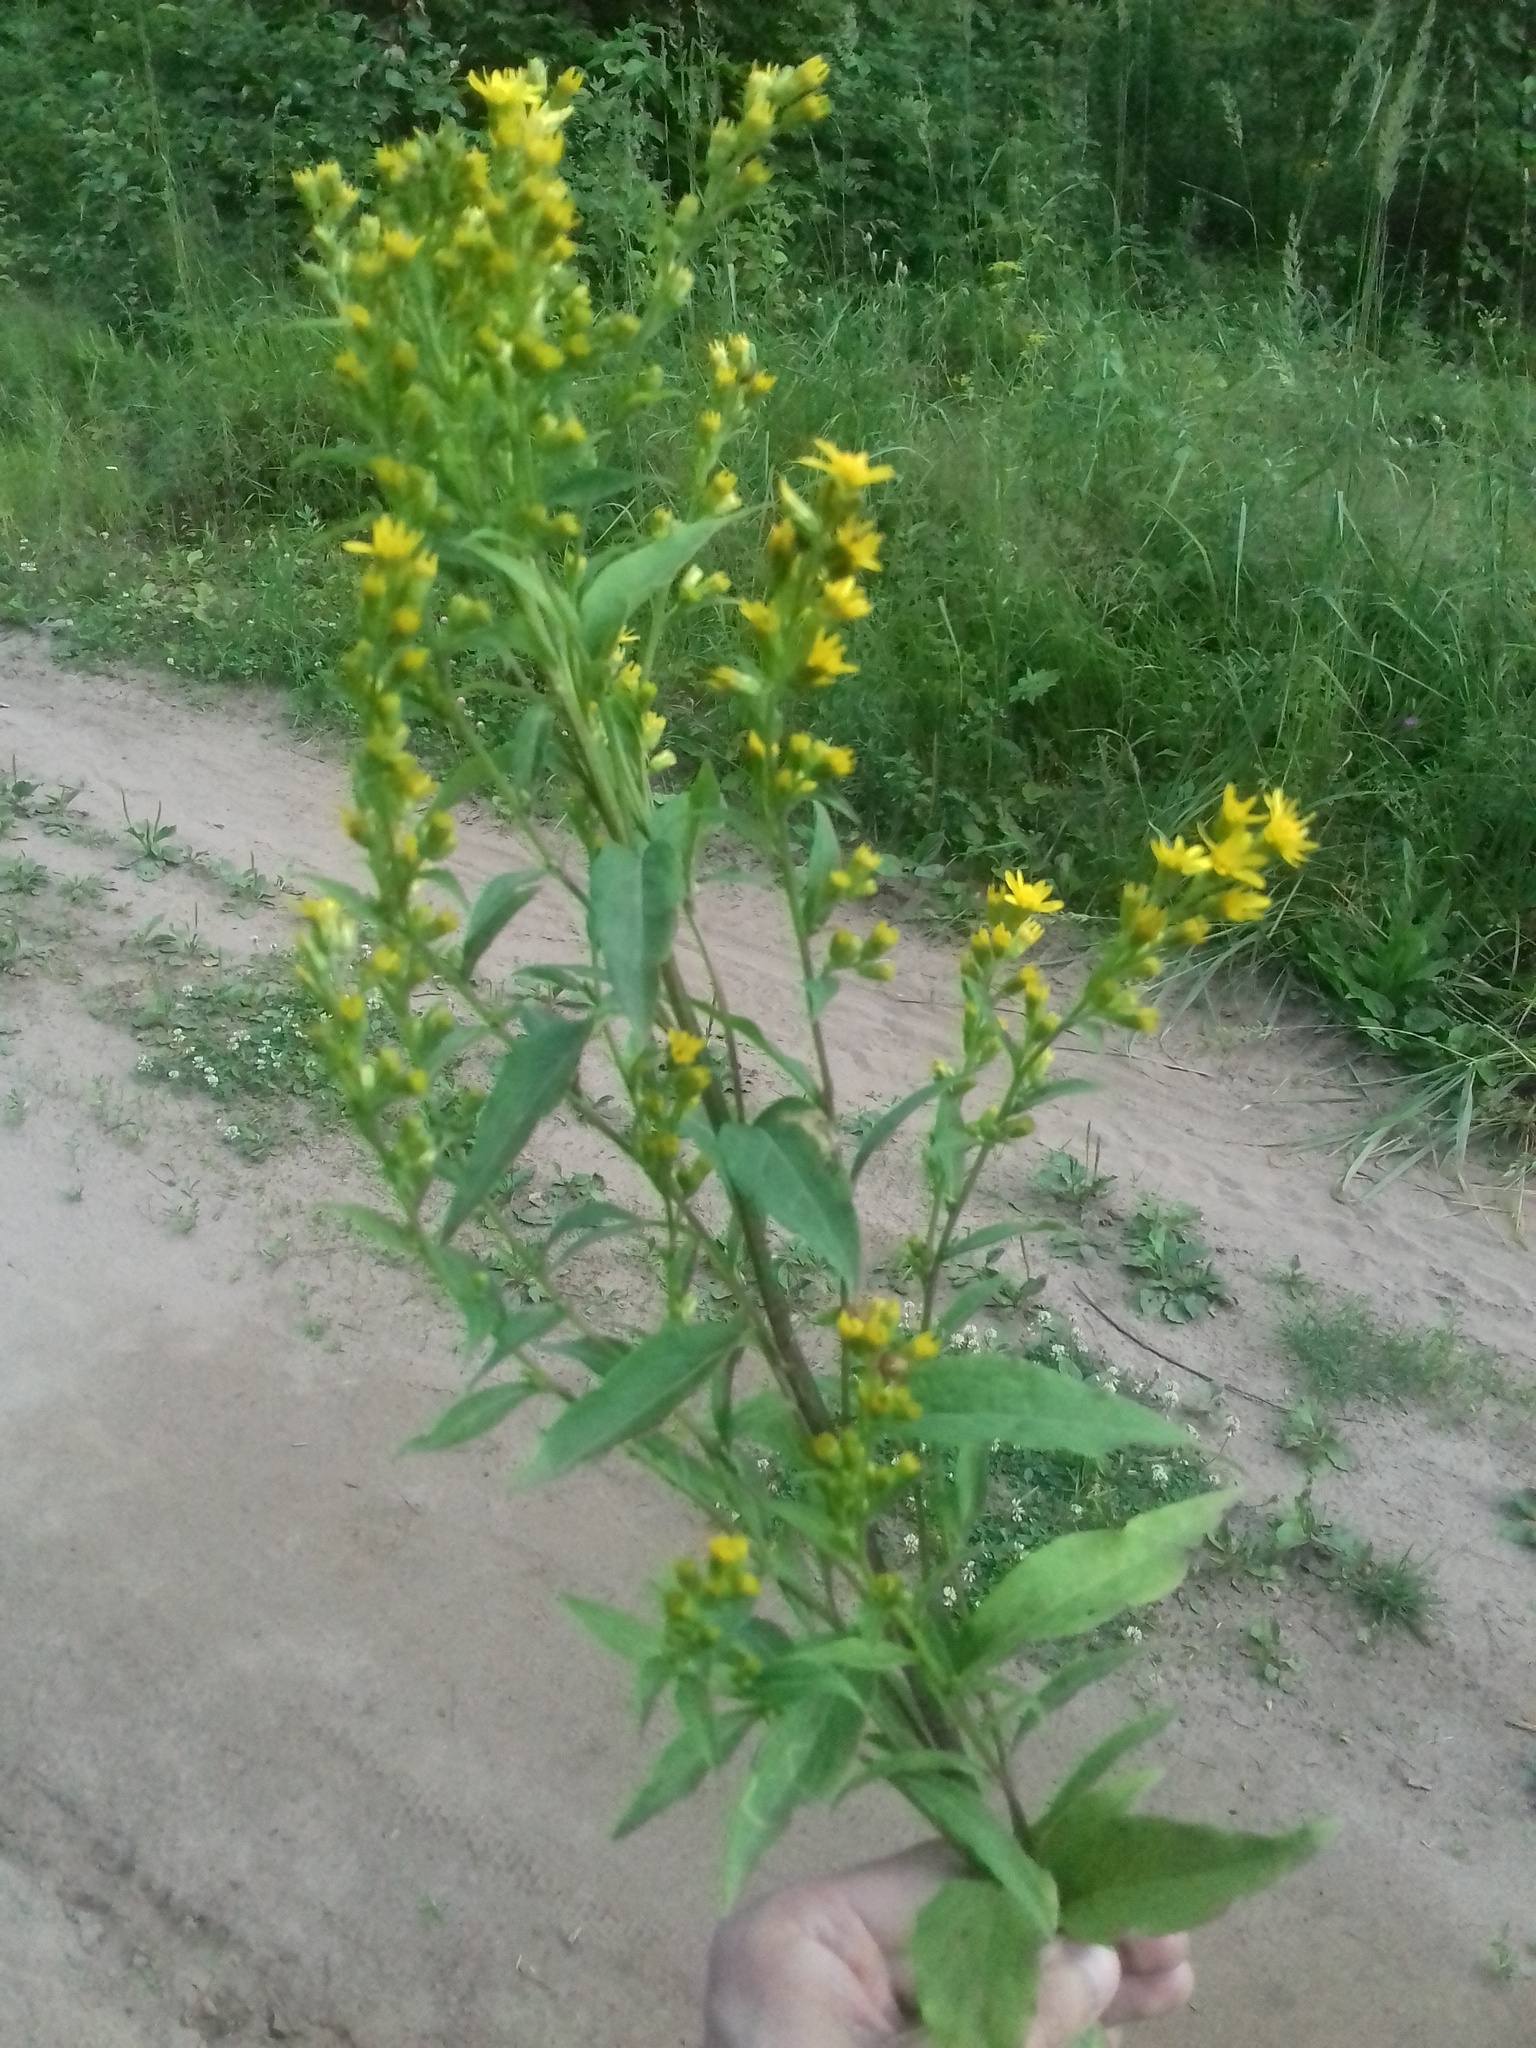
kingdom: Plantae
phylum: Tracheophyta
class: Magnoliopsida
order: Asterales
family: Asteraceae
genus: Solidago
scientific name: Solidago virgaurea
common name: Goldenrod
